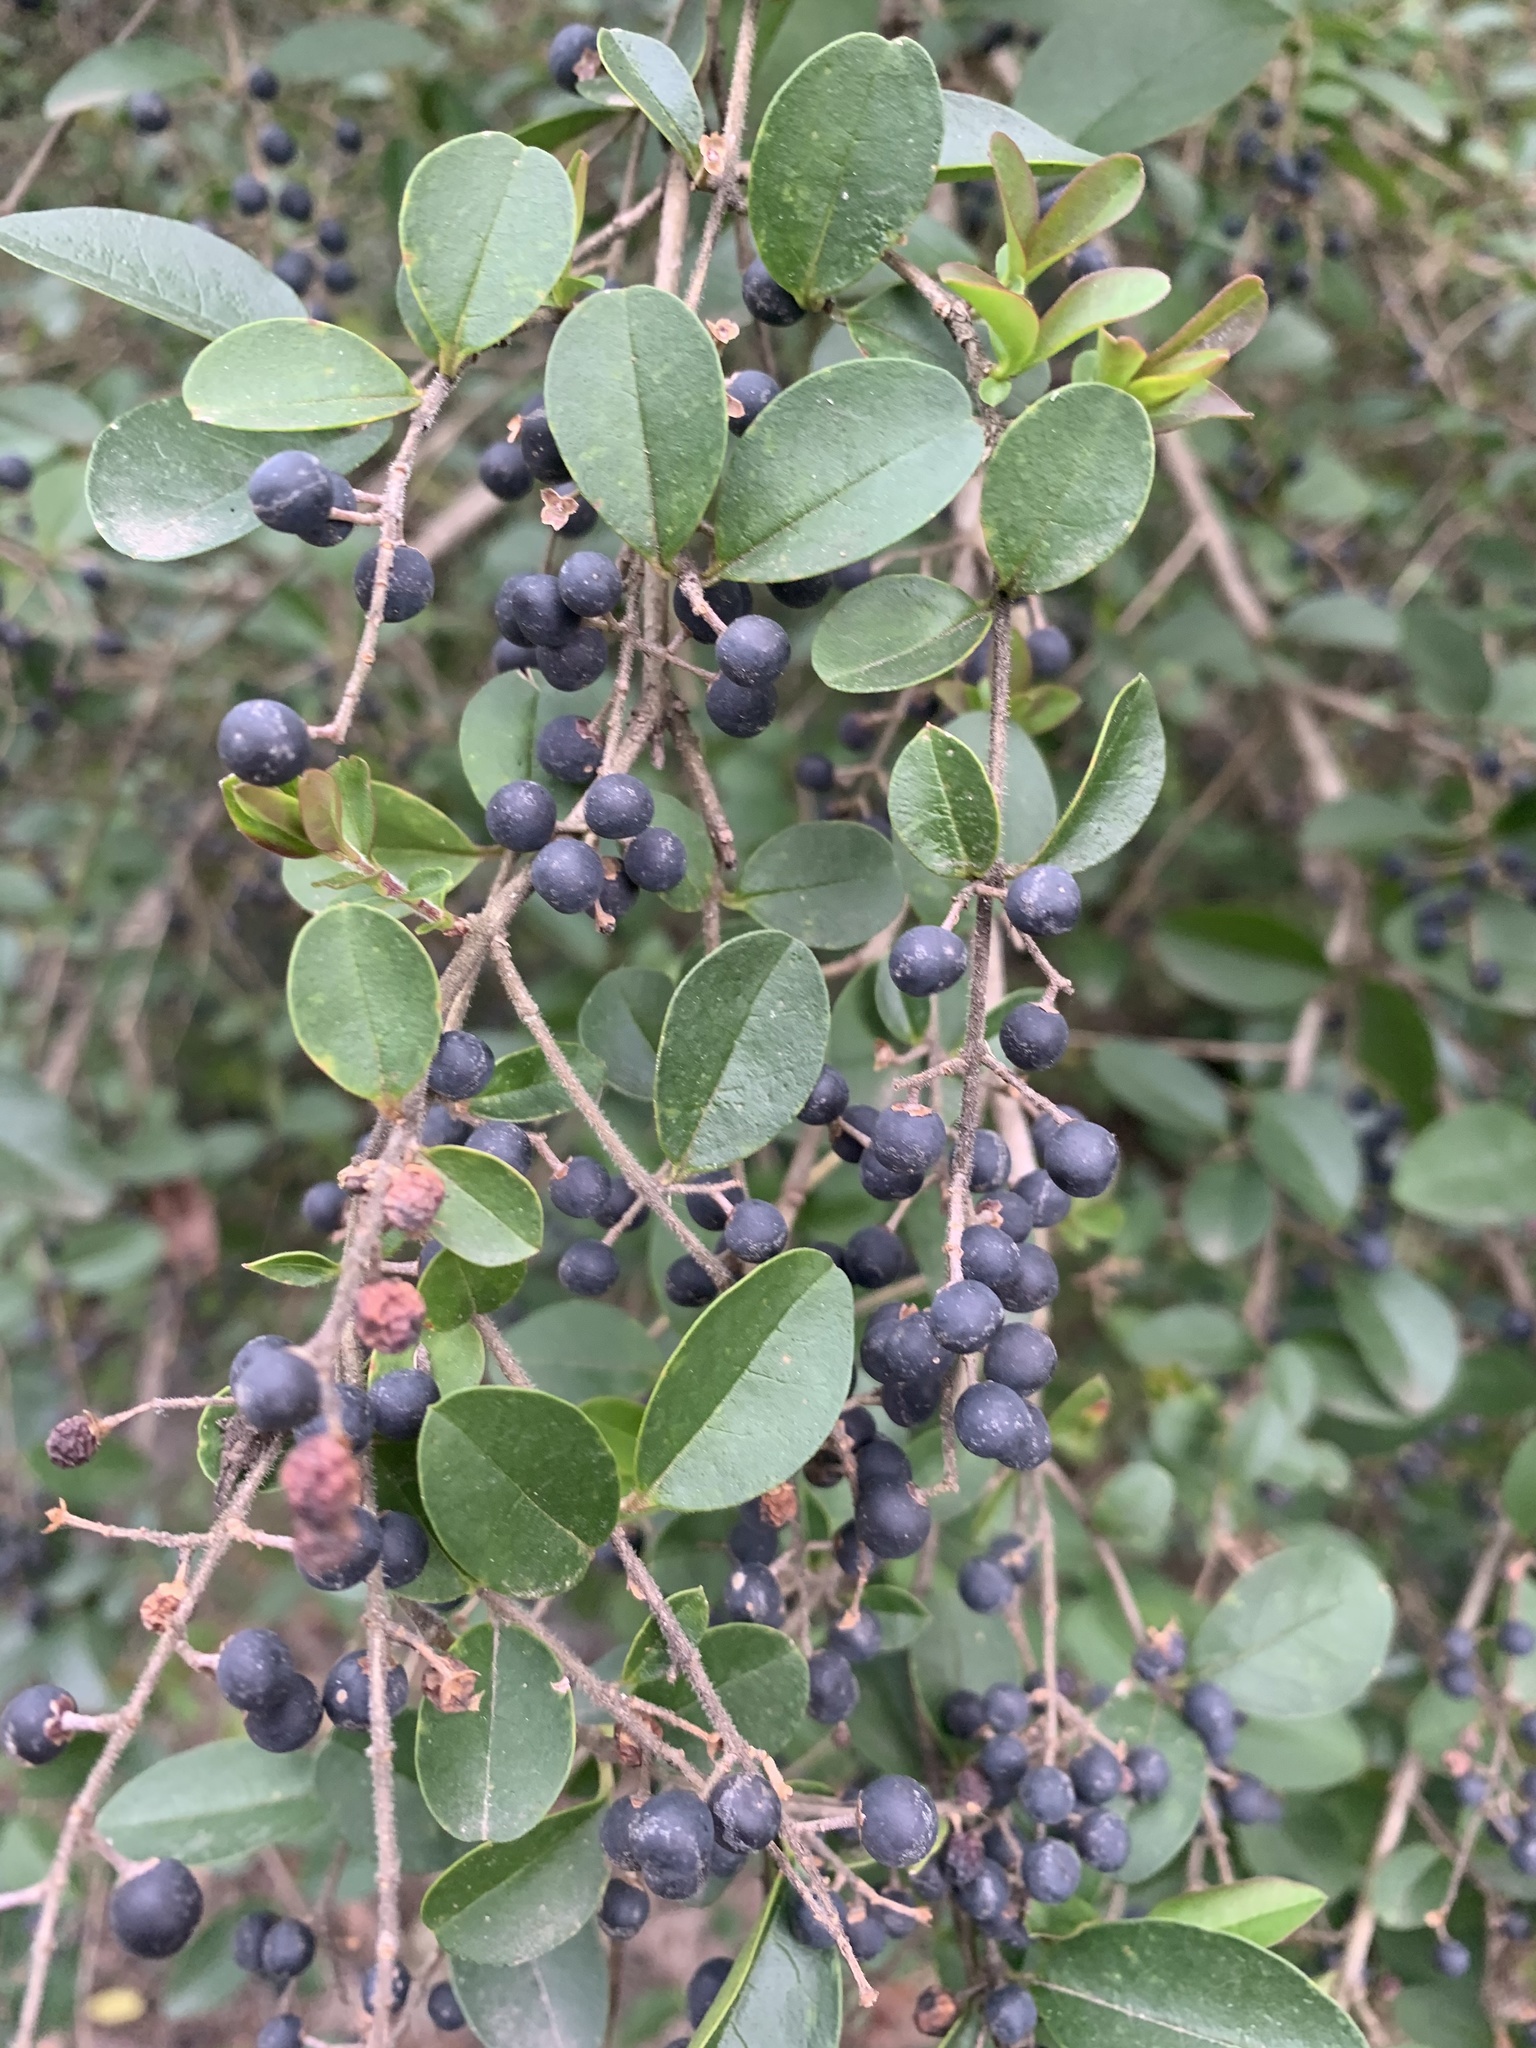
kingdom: Plantae
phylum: Tracheophyta
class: Magnoliopsida
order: Lamiales
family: Oleaceae
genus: Ligustrum
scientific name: Ligustrum sinense
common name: Chinese privet
